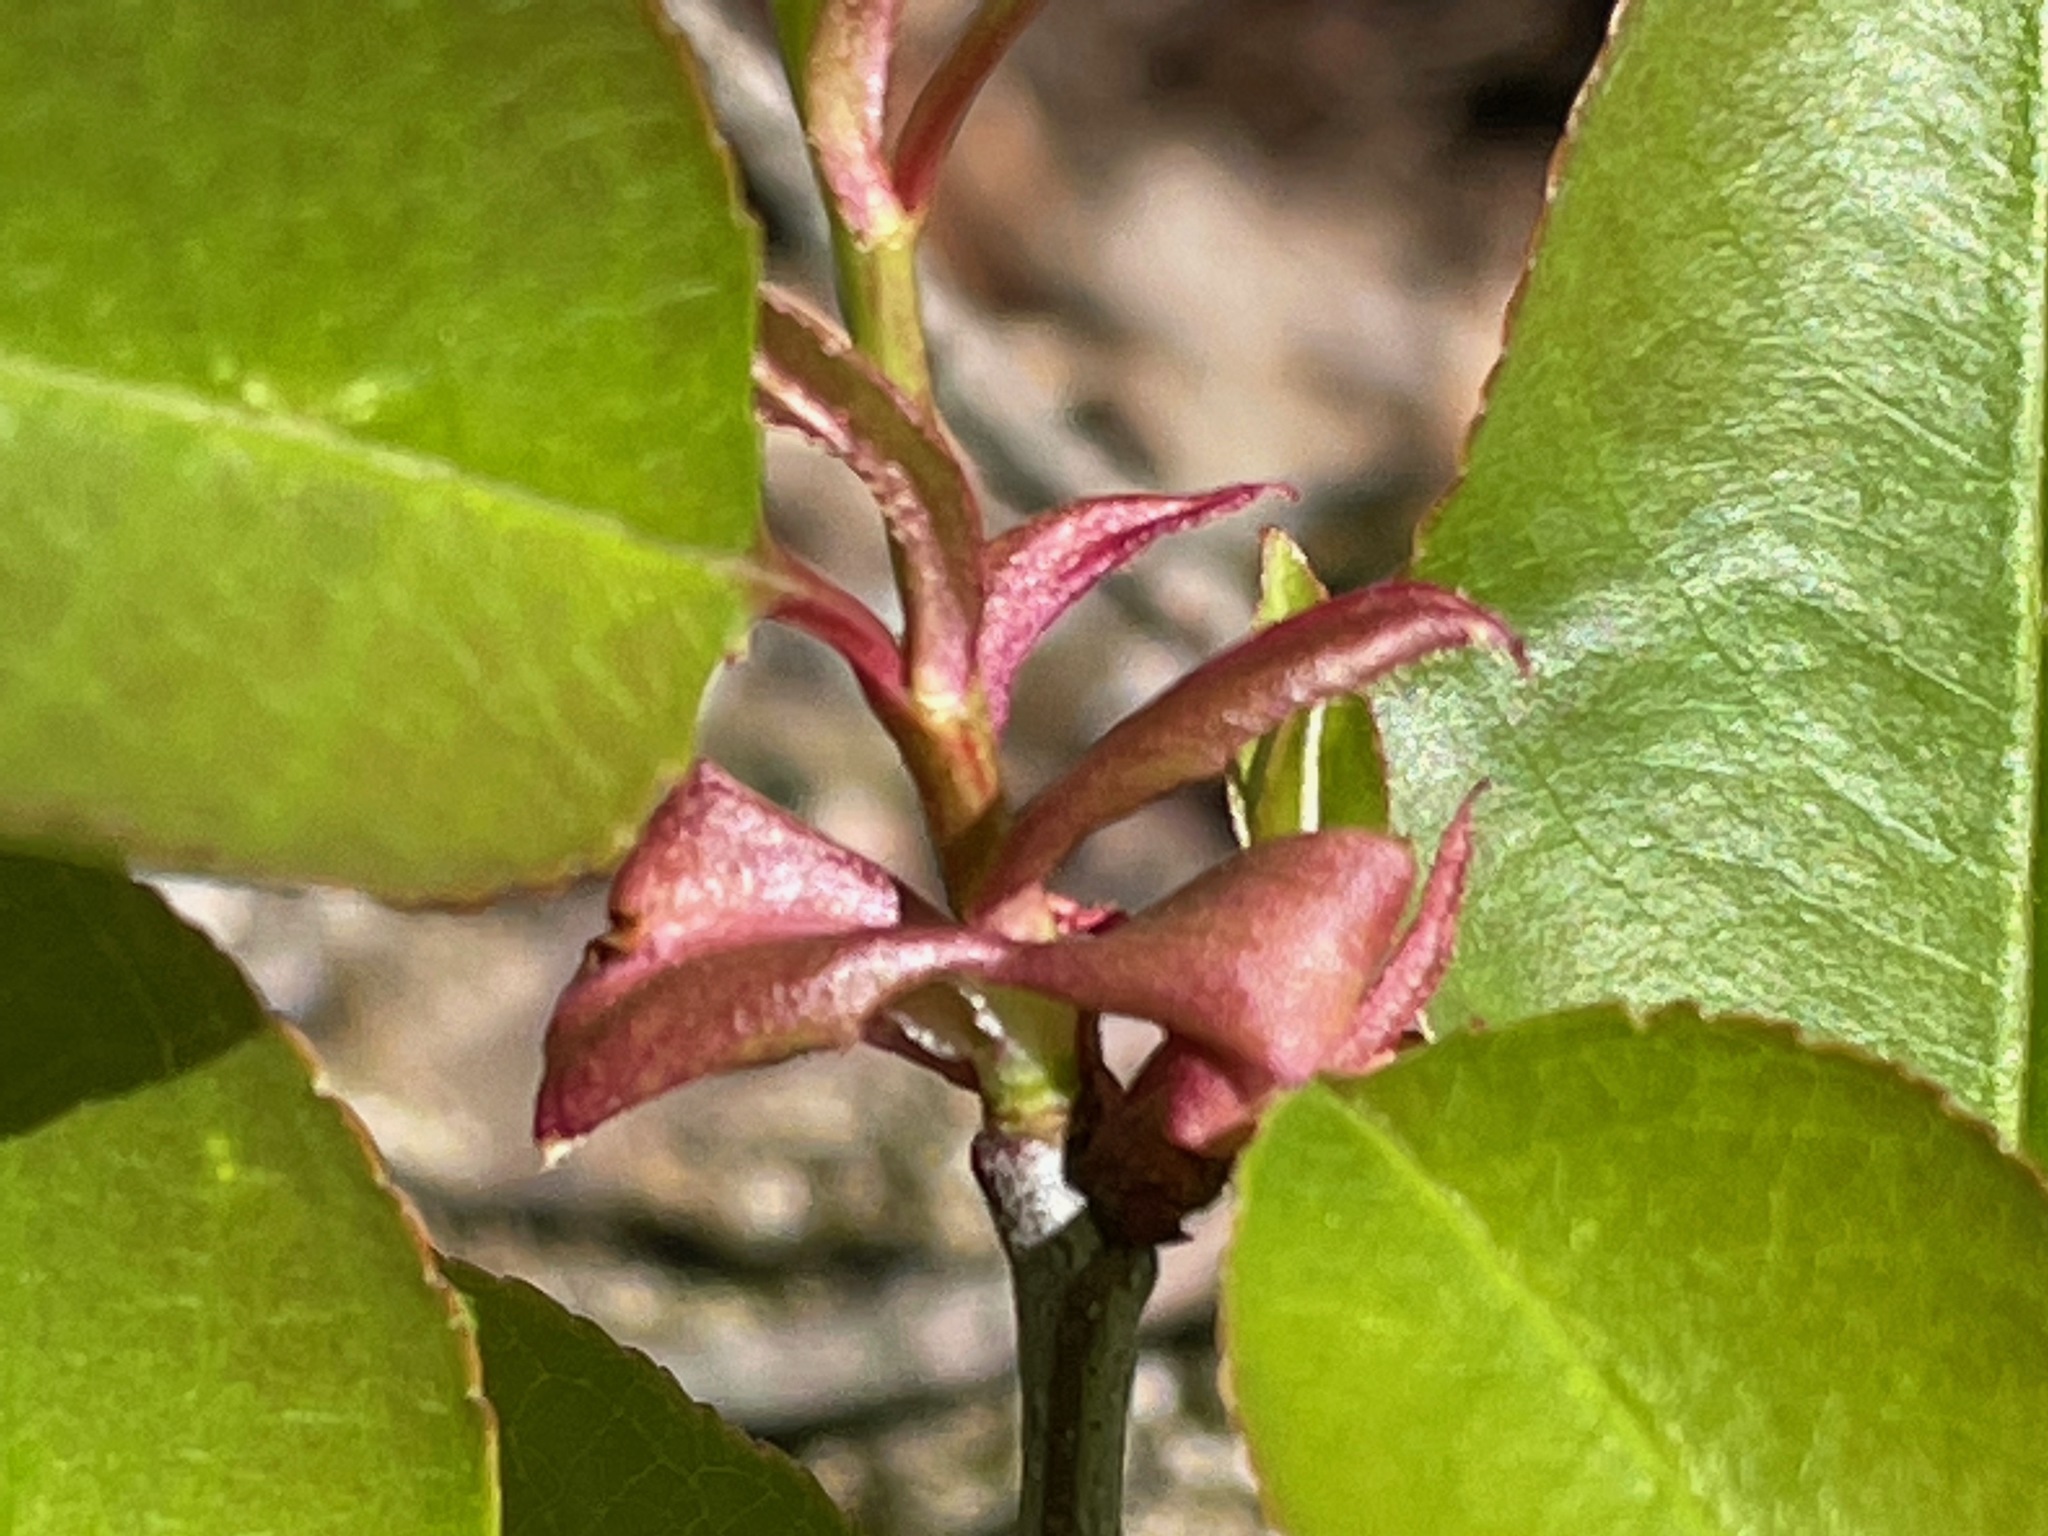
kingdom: Plantae
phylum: Tracheophyta
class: Magnoliopsida
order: Rosales
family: Rosaceae
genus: Prunus
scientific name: Prunus serotina
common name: Black cherry
